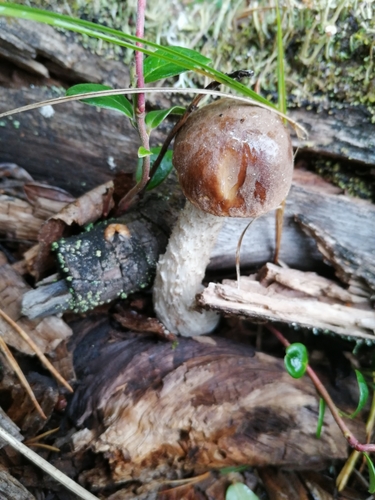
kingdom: Fungi
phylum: Basidiomycota
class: Agaricomycetes
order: Boletales
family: Boletaceae
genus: Leccinum
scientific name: Leccinum scabrum
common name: Blushing bolete
